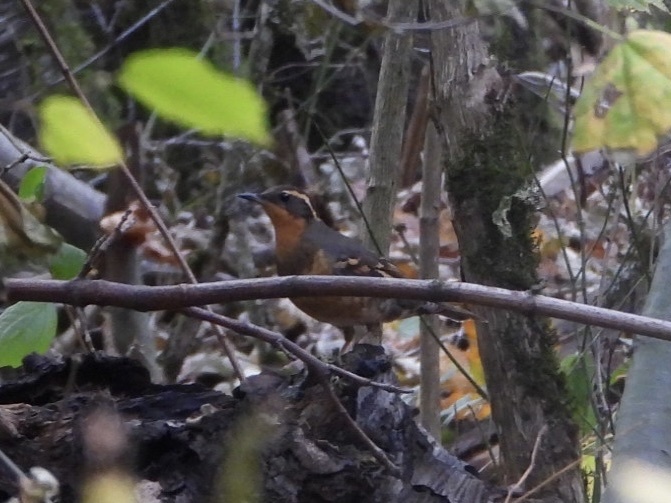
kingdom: Animalia
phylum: Chordata
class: Aves
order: Passeriformes
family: Turdidae
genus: Ixoreus
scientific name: Ixoreus naevius
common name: Varied thrush
